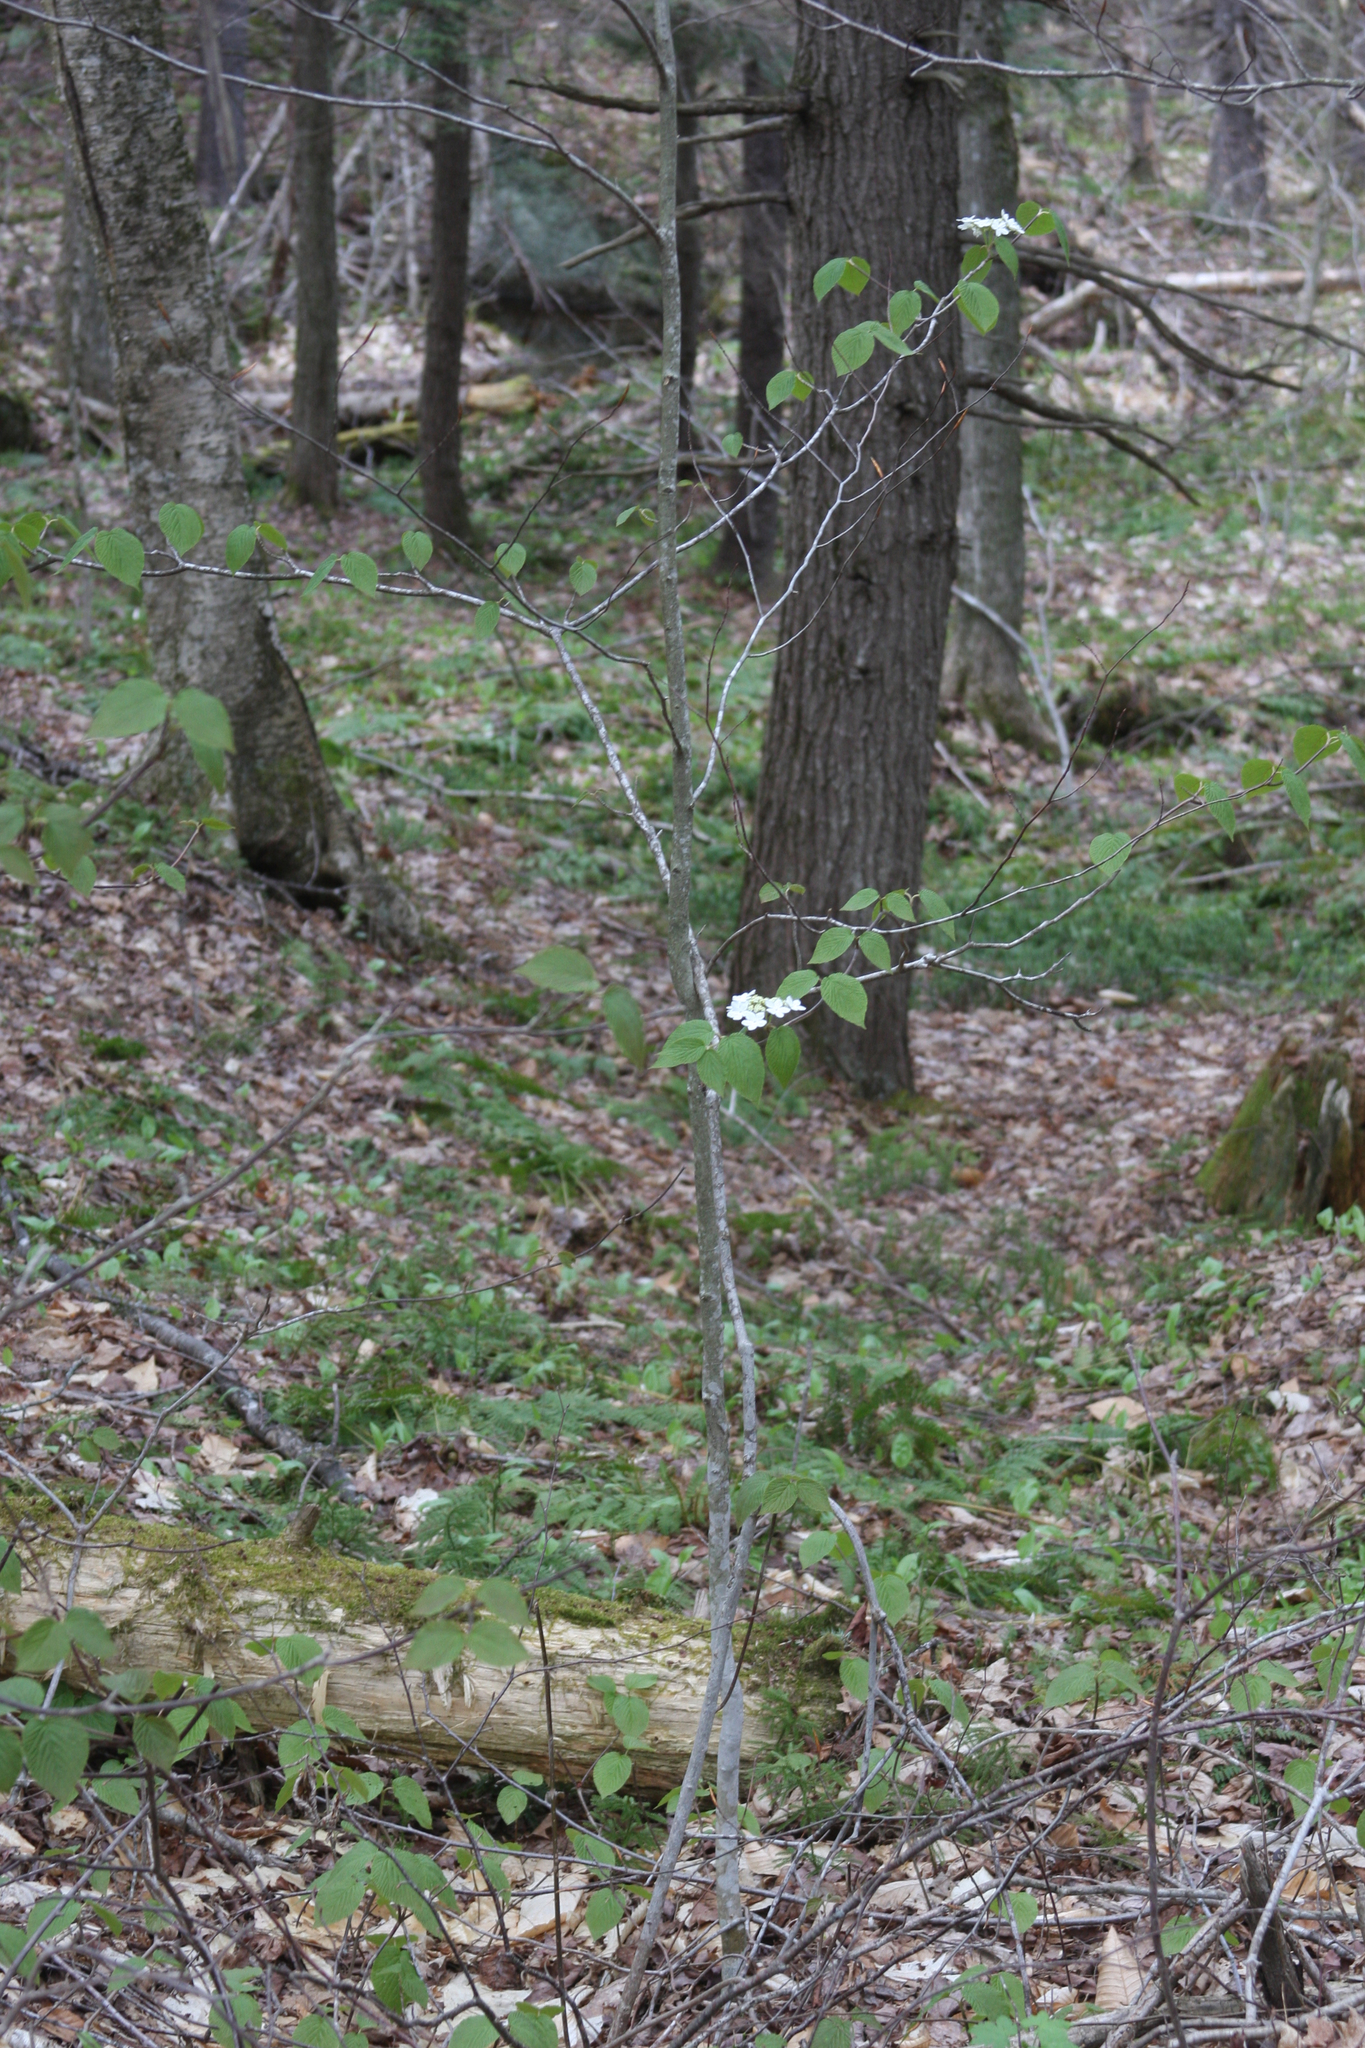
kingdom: Plantae
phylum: Tracheophyta
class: Magnoliopsida
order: Dipsacales
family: Viburnaceae
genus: Viburnum
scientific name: Viburnum lantanoides
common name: Hobblebush
